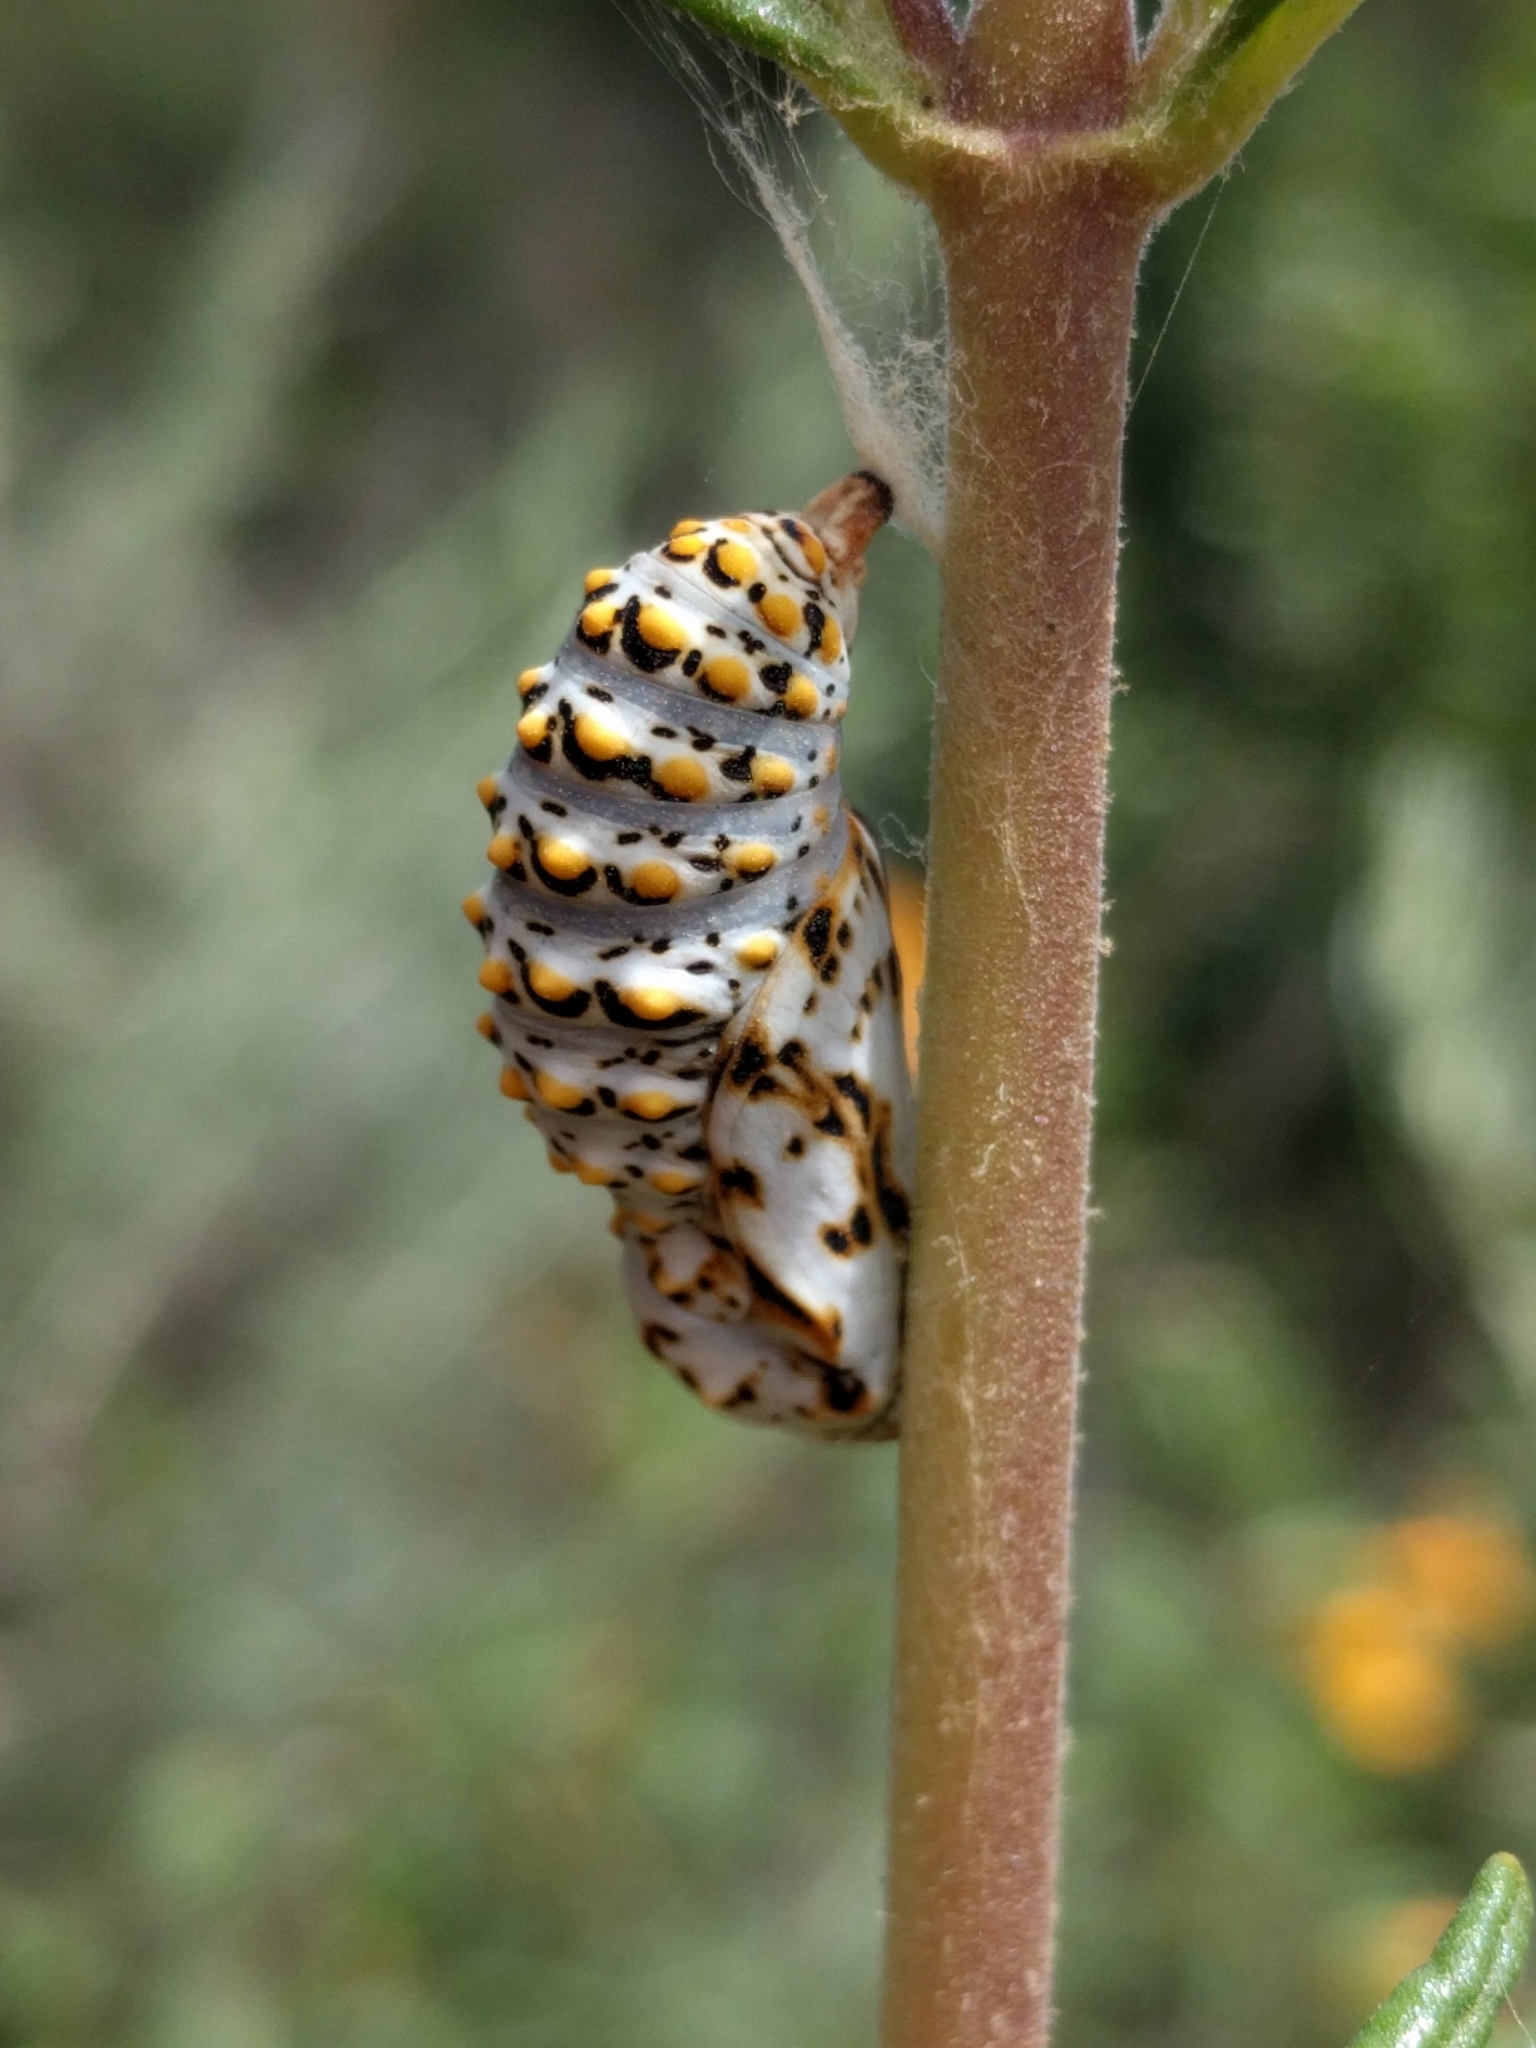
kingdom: Animalia
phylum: Arthropoda
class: Insecta
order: Lepidoptera
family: Nymphalidae
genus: Occidryas
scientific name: Occidryas chalcedona
